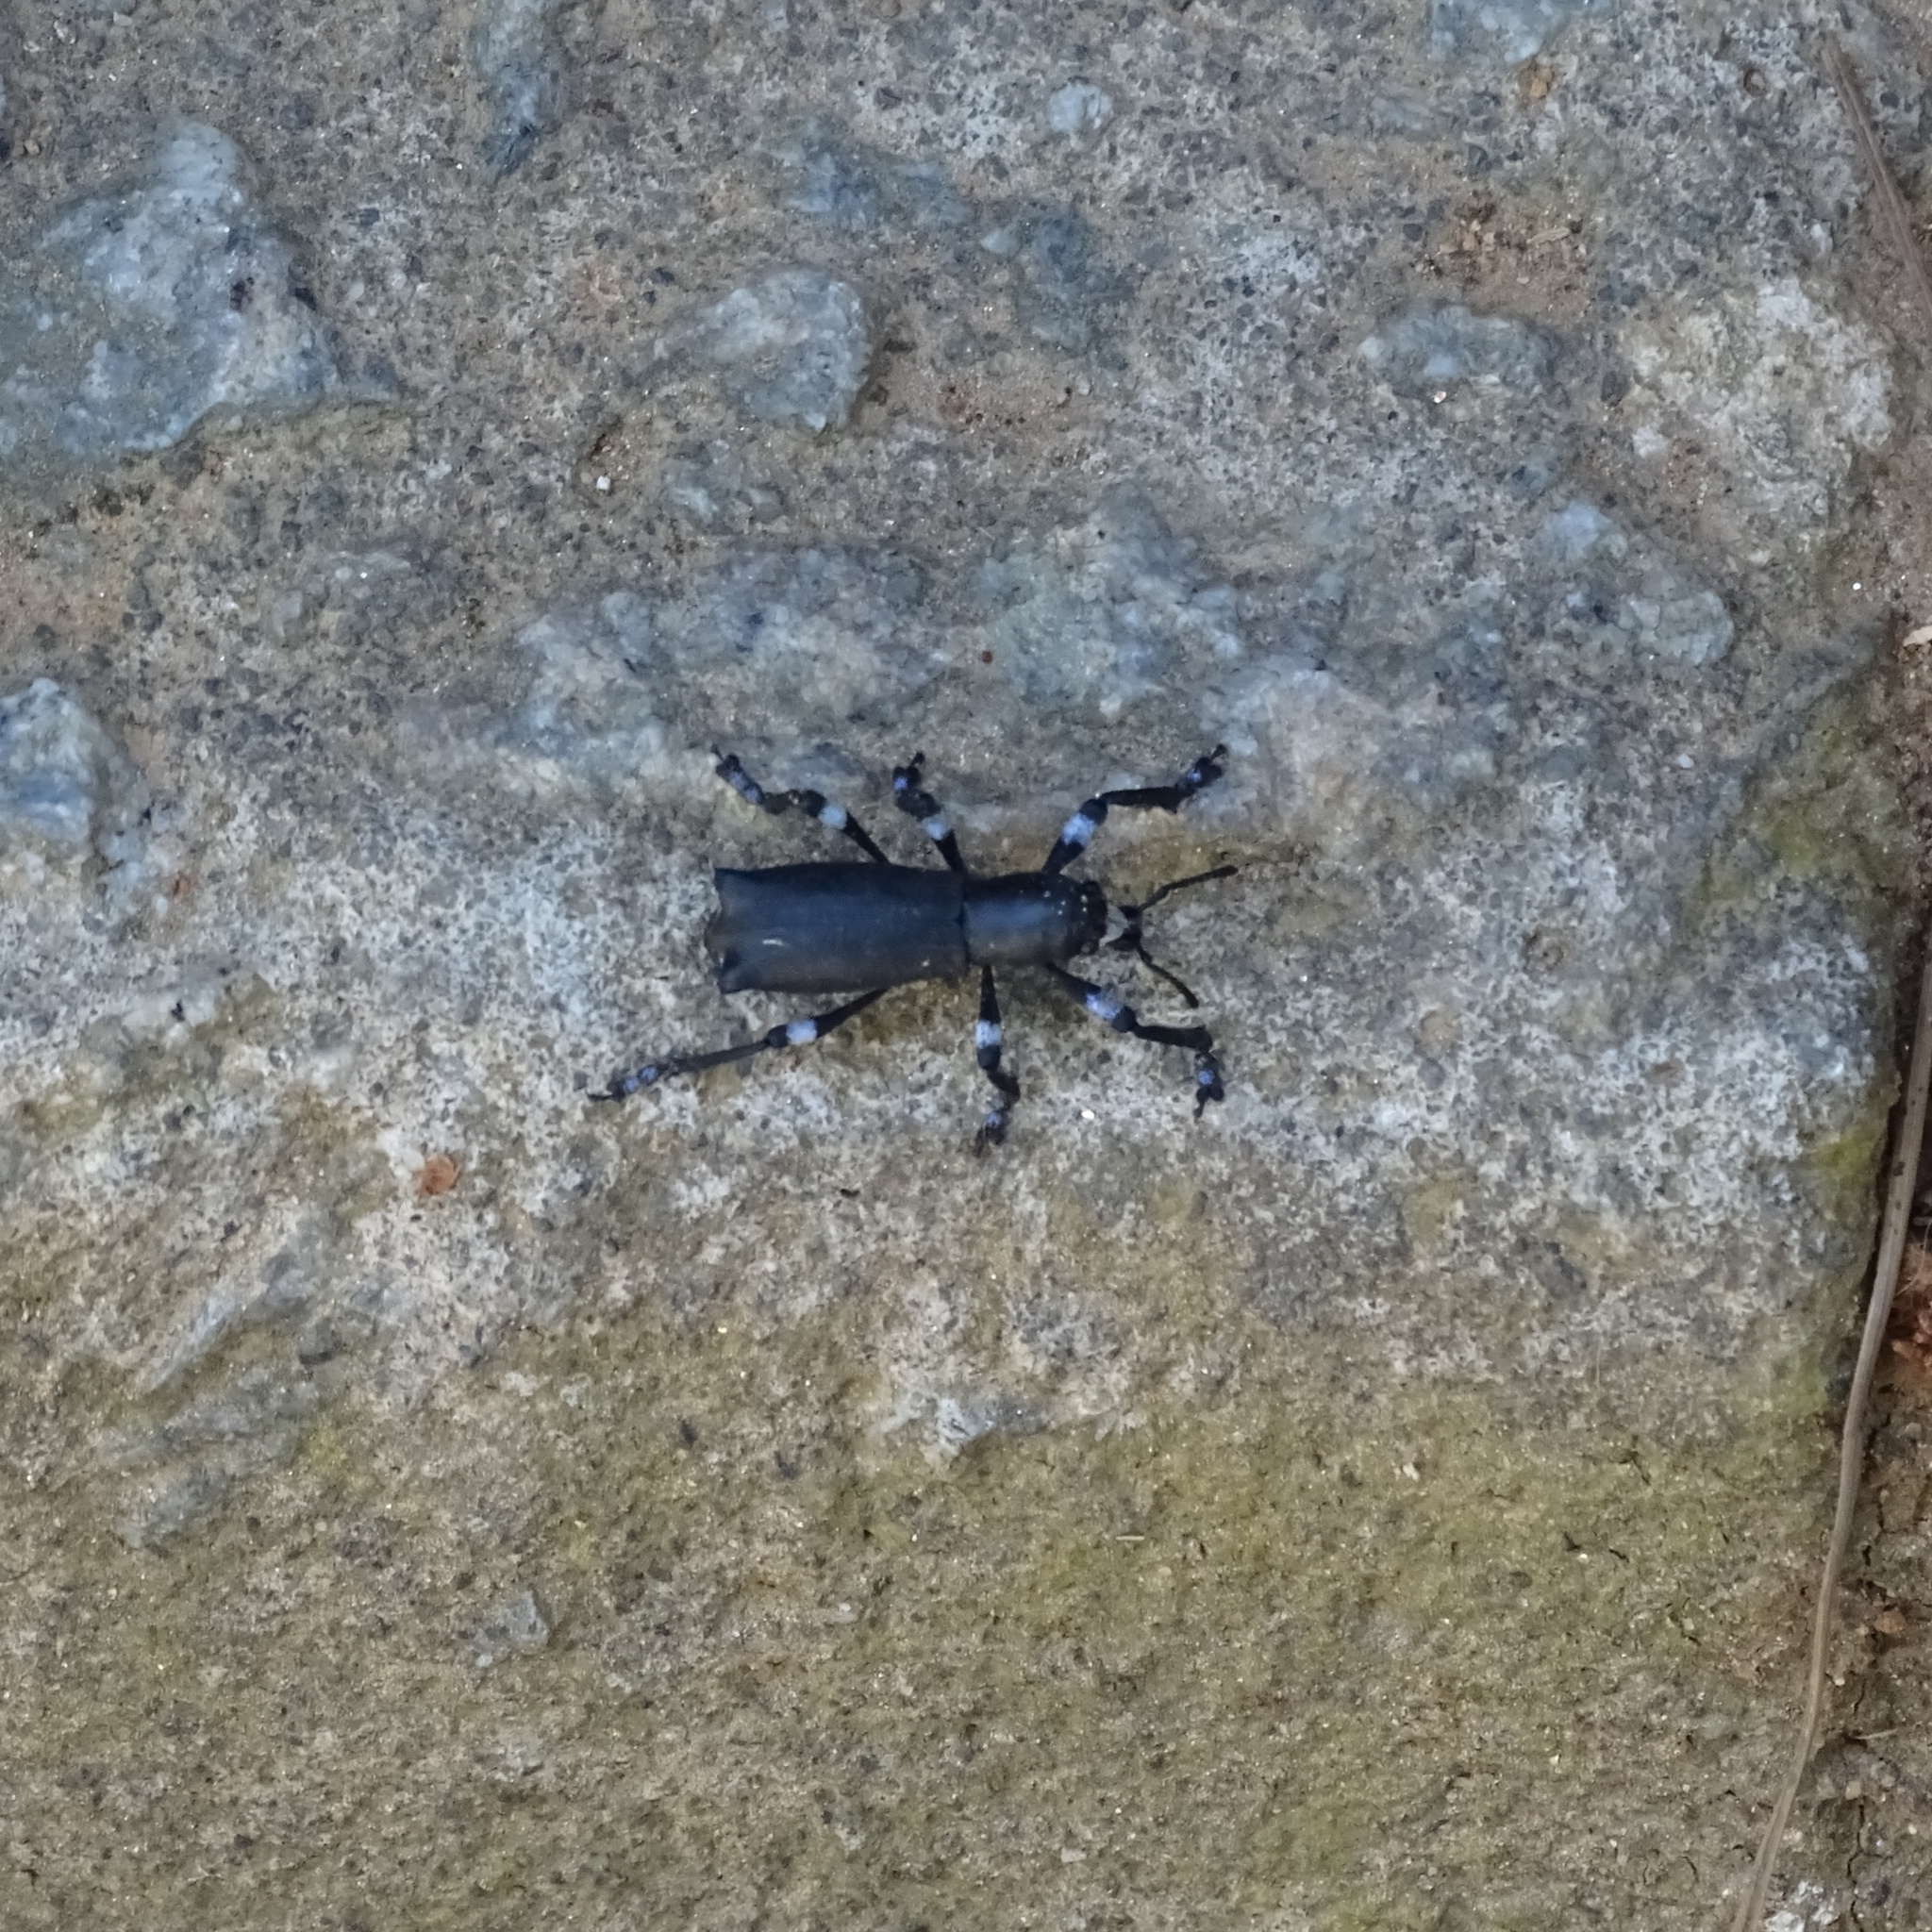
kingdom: Animalia
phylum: Arthropoda
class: Insecta
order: Coleoptera
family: Curculionidae
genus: Aegorhinus
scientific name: Aegorhinus
